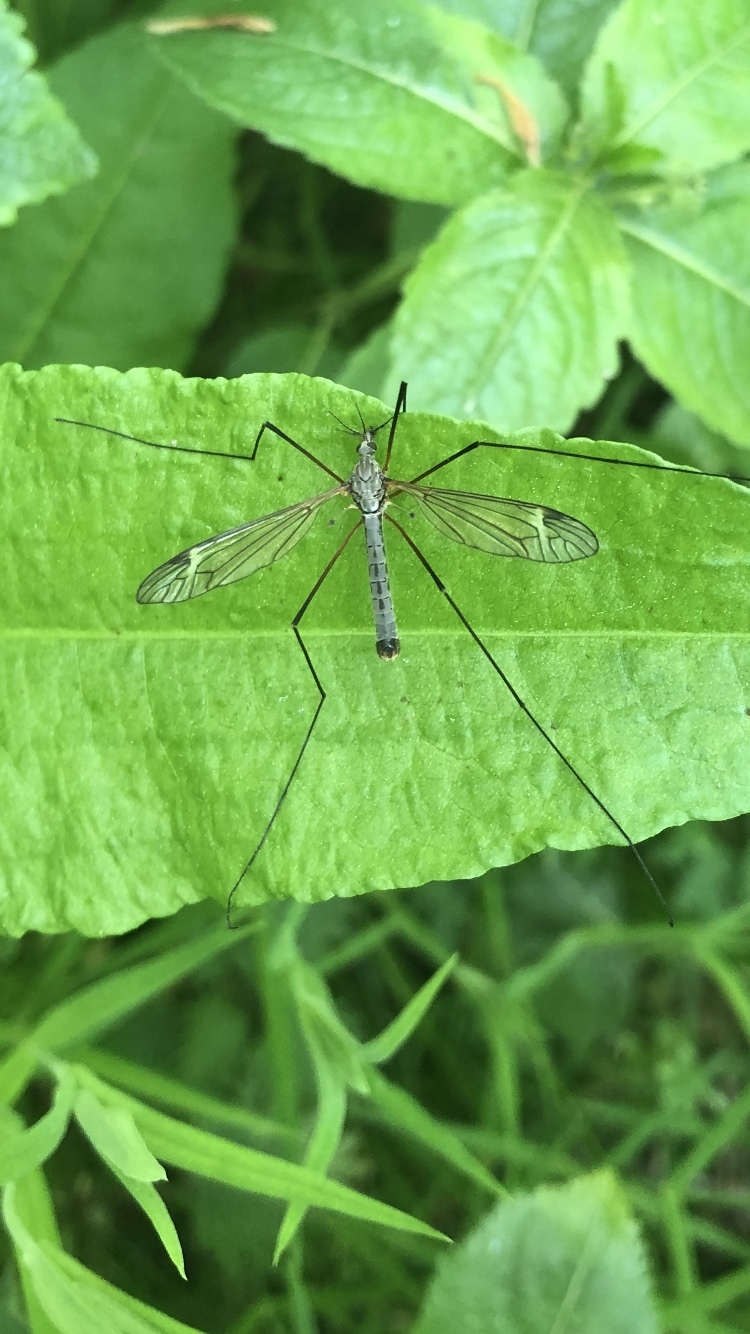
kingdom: Animalia
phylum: Arthropoda
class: Insecta
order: Diptera
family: Tipulidae
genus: Tipula
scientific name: Tipula luna
